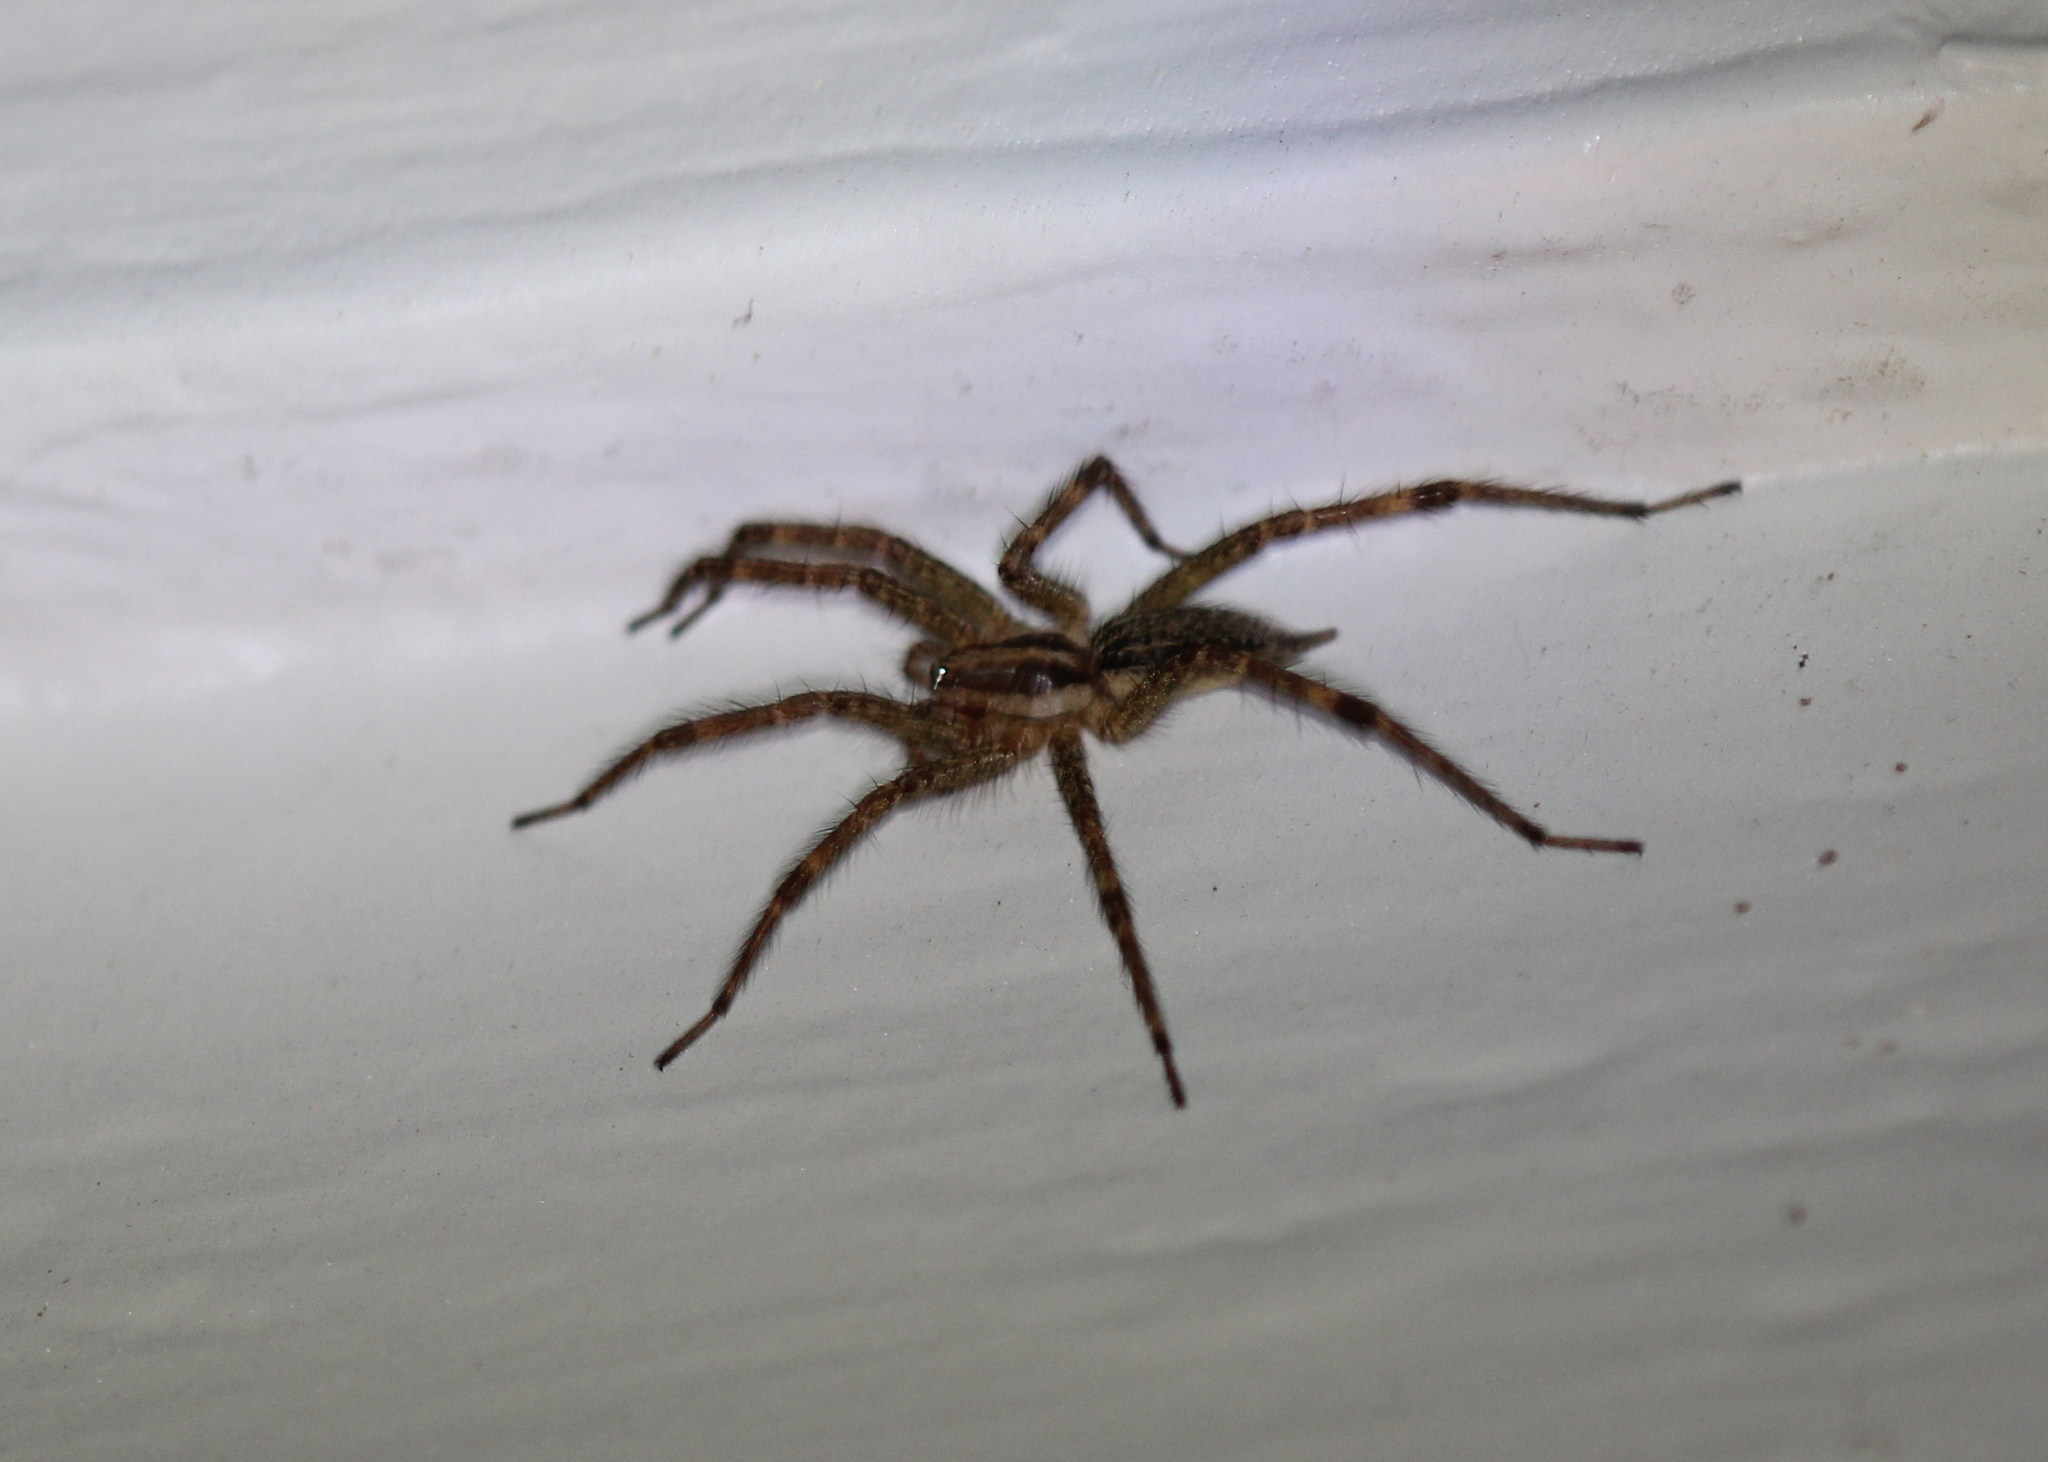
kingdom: Animalia
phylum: Arthropoda
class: Arachnida
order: Araneae
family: Agelenidae
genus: Agelenopsis
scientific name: Agelenopsis
